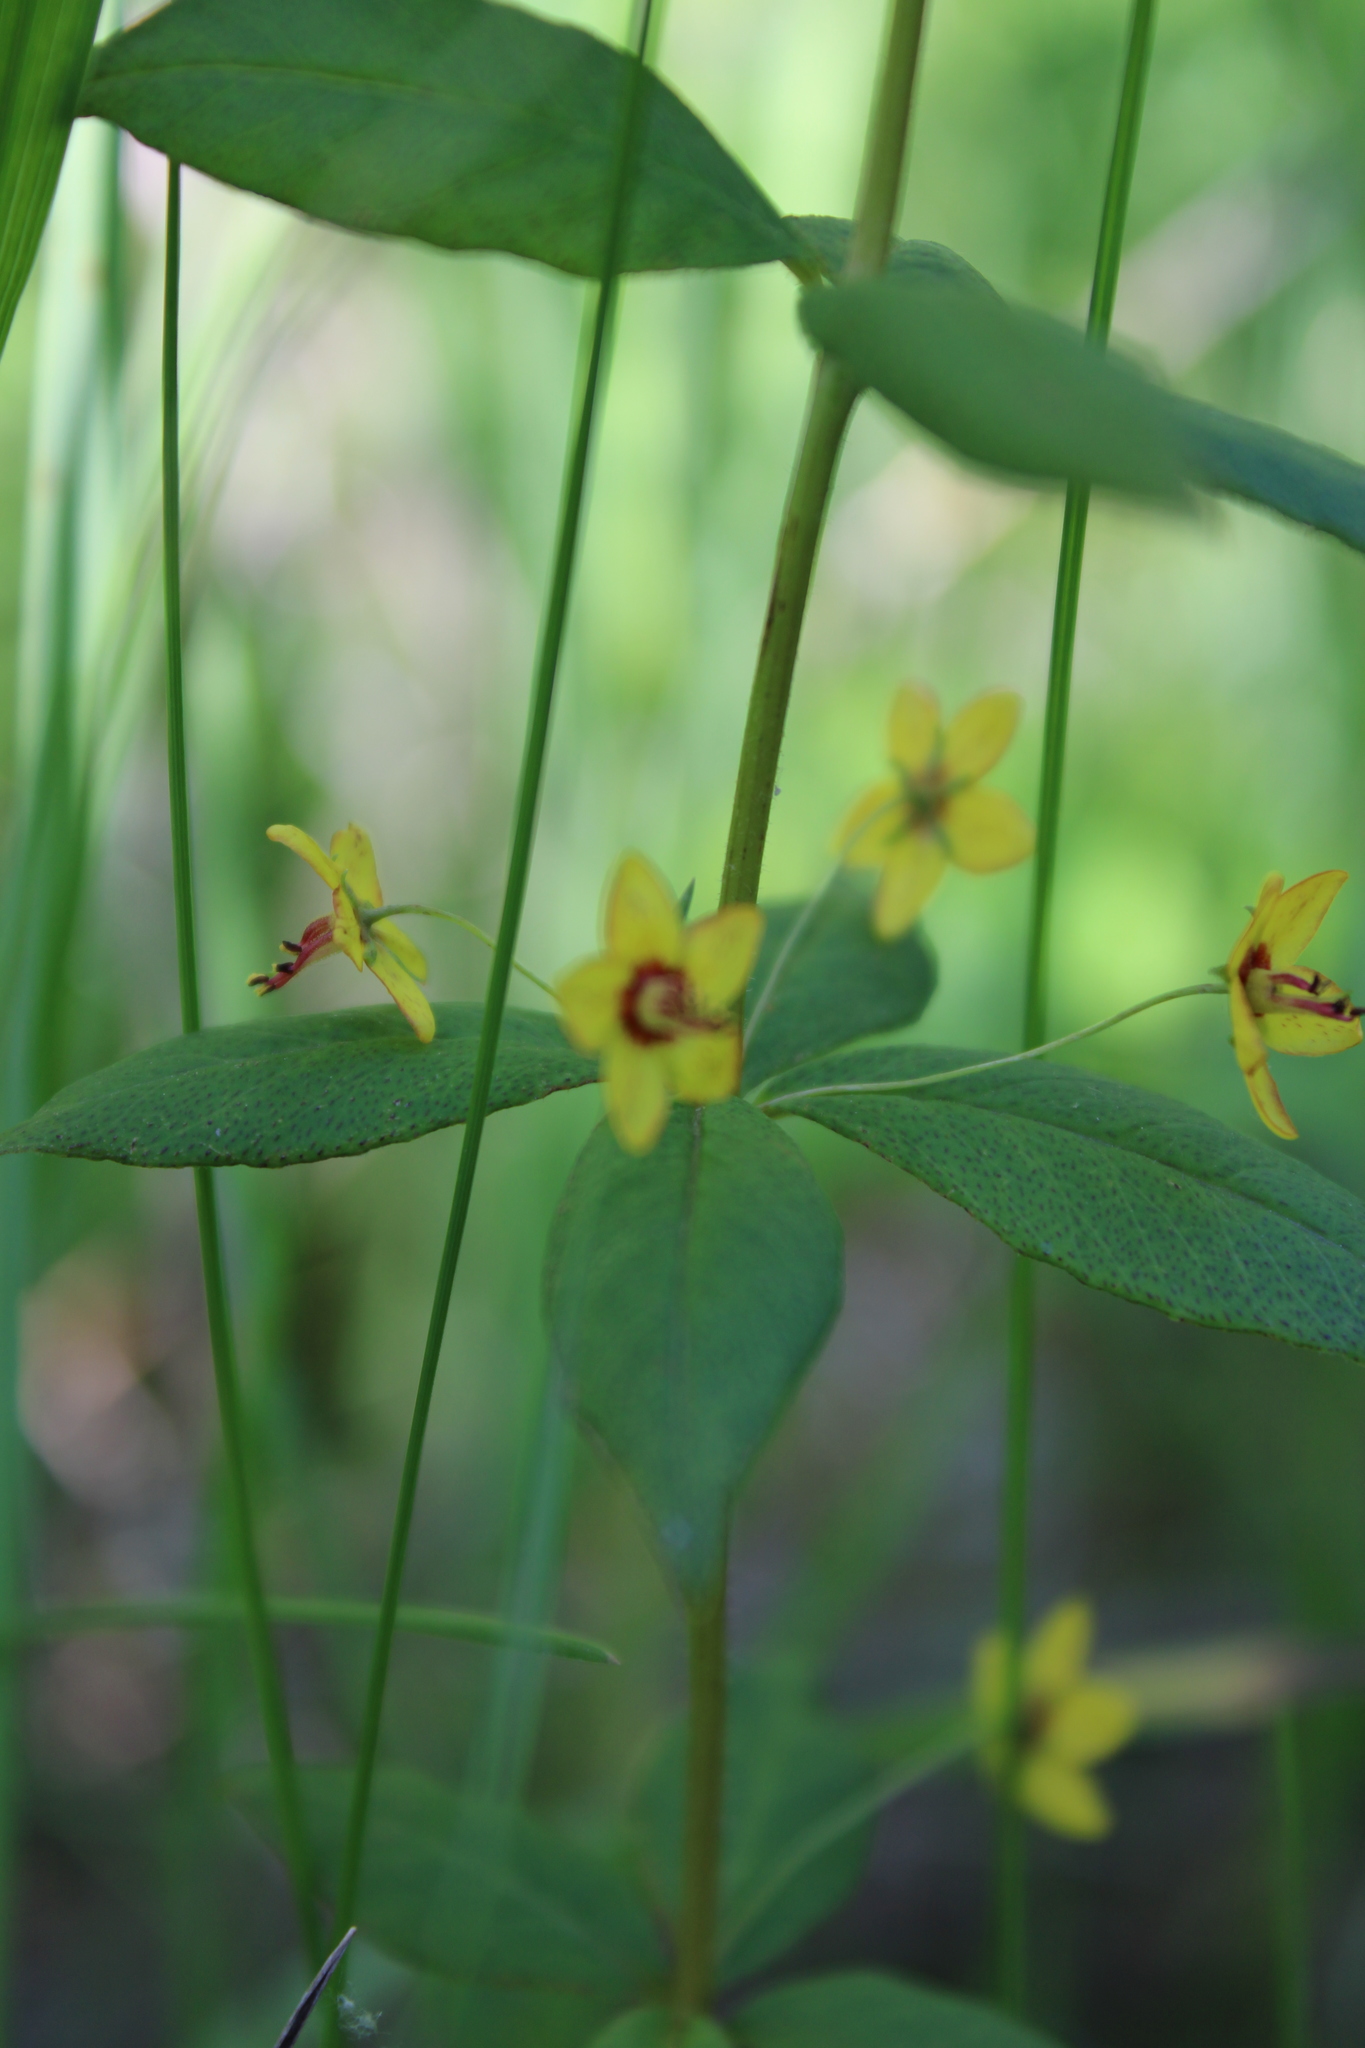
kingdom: Plantae
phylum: Tracheophyta
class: Magnoliopsida
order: Ericales
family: Primulaceae
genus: Lysimachia
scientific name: Lysimachia quadrifolia
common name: Whorled loosestrife
